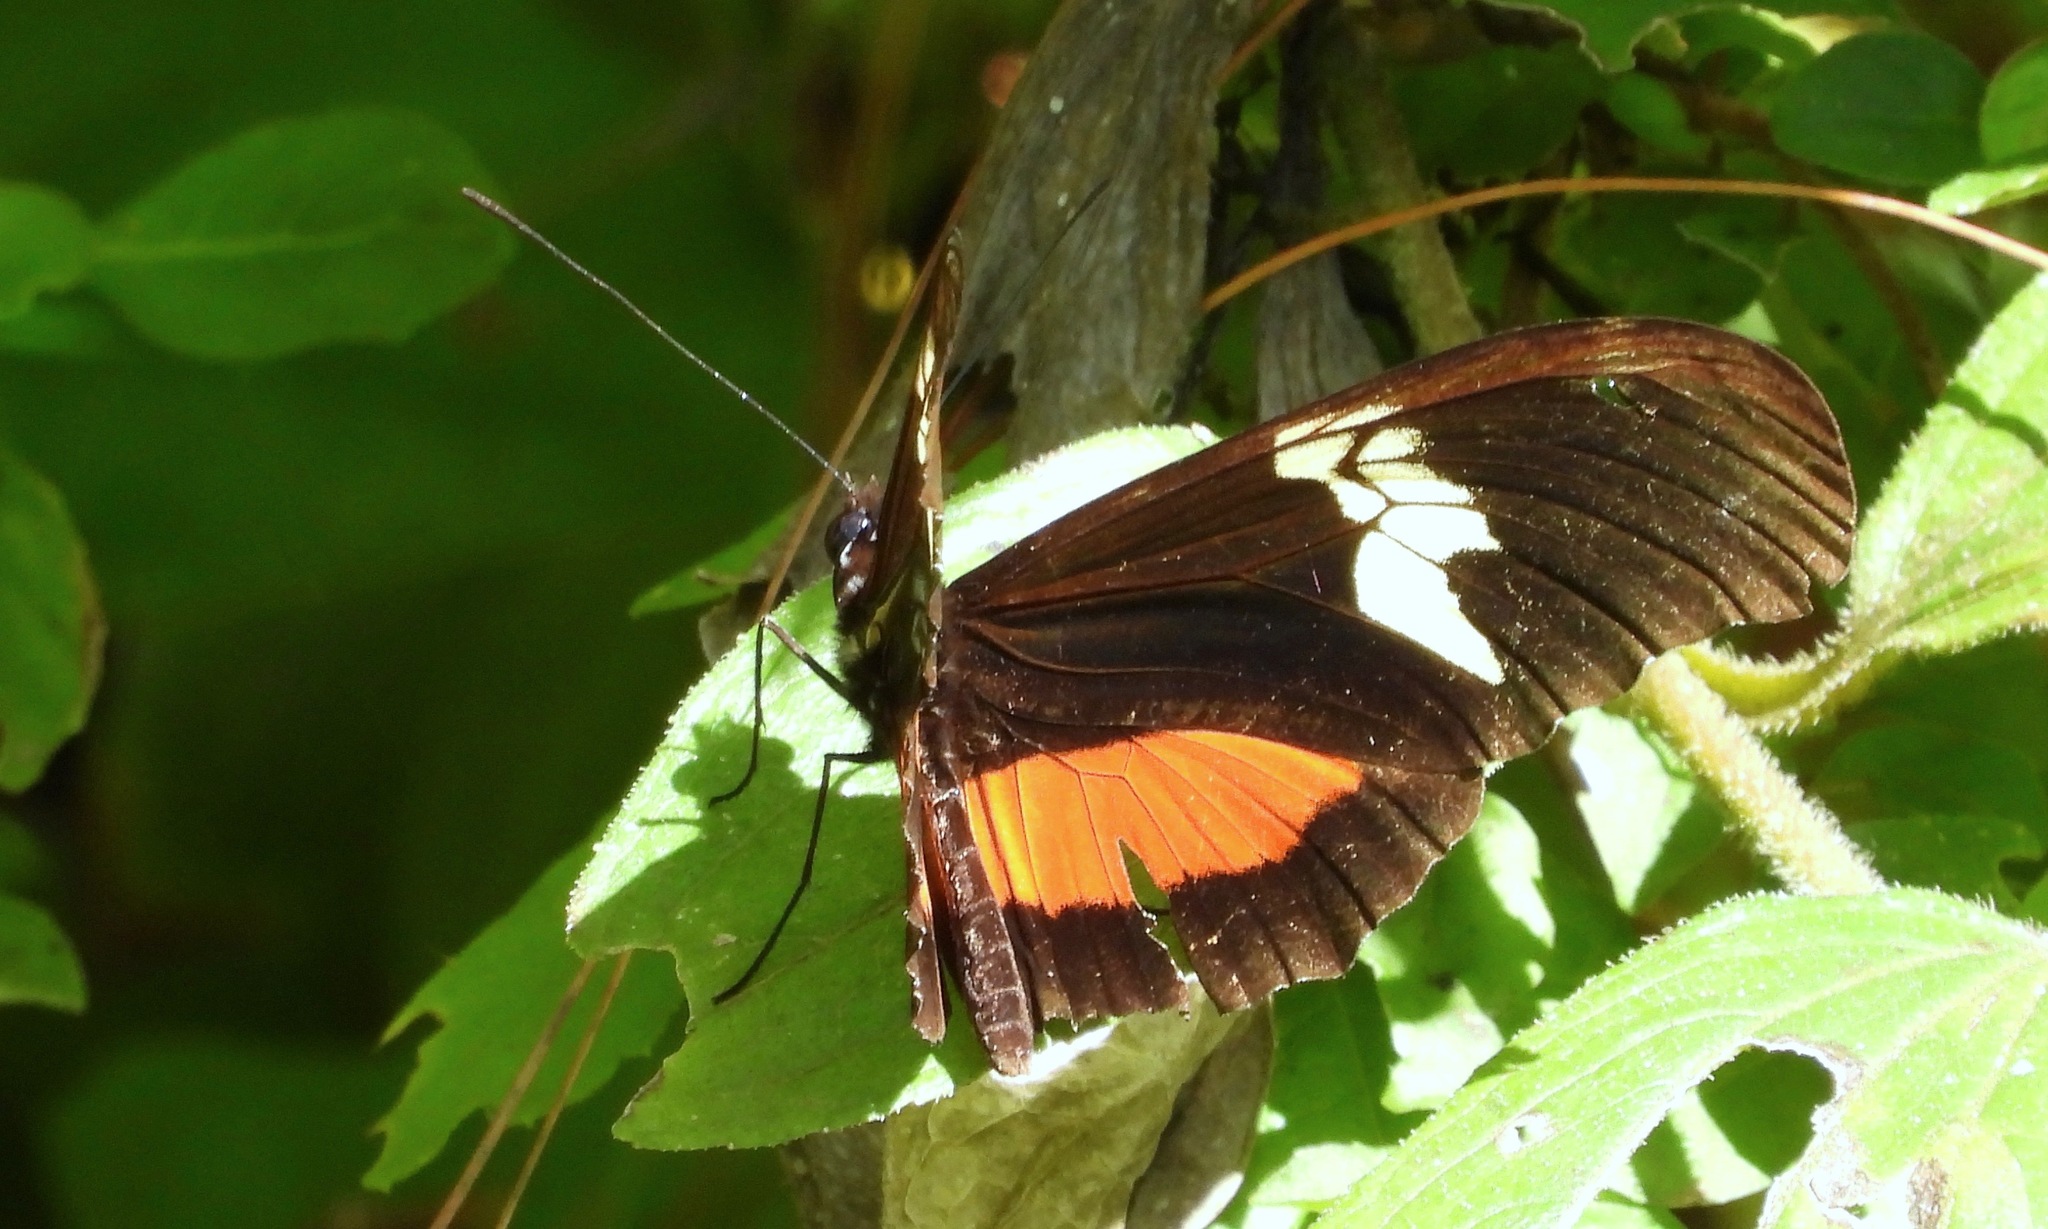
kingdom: Animalia
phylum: Arthropoda
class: Insecta
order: Lepidoptera
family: Nymphalidae
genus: Heliconius
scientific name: Heliconius hortense
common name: Mexican longwing
